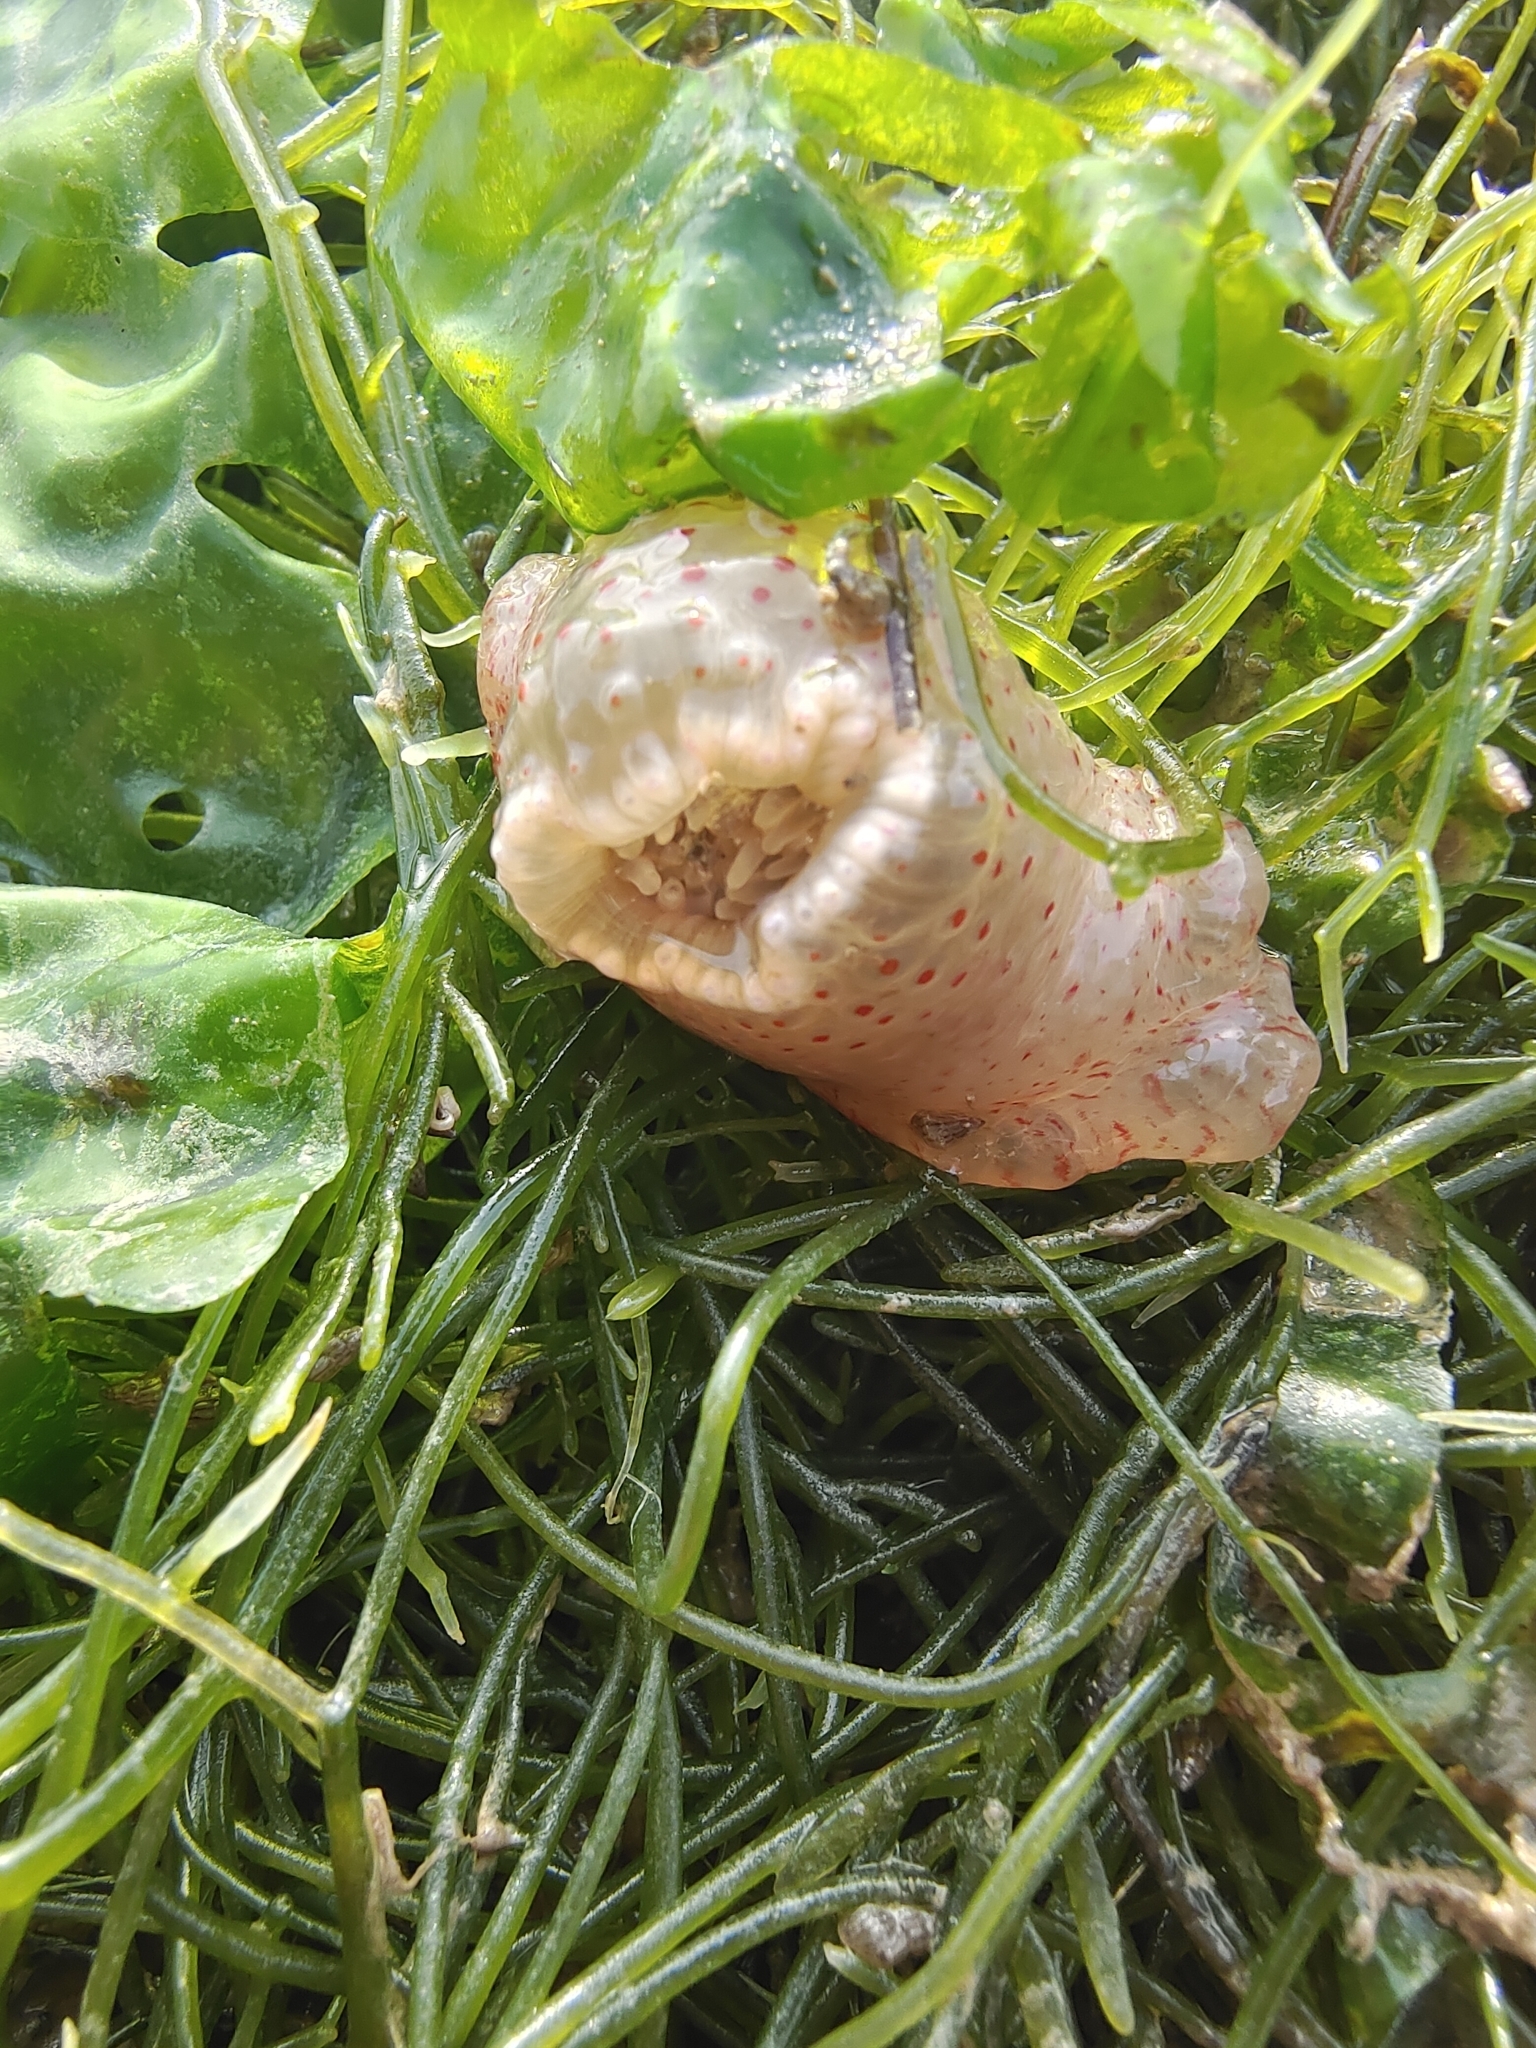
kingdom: Animalia
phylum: Cnidaria
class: Anthozoa
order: Actiniaria
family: Actiniidae
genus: Condylactis
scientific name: Condylactis
